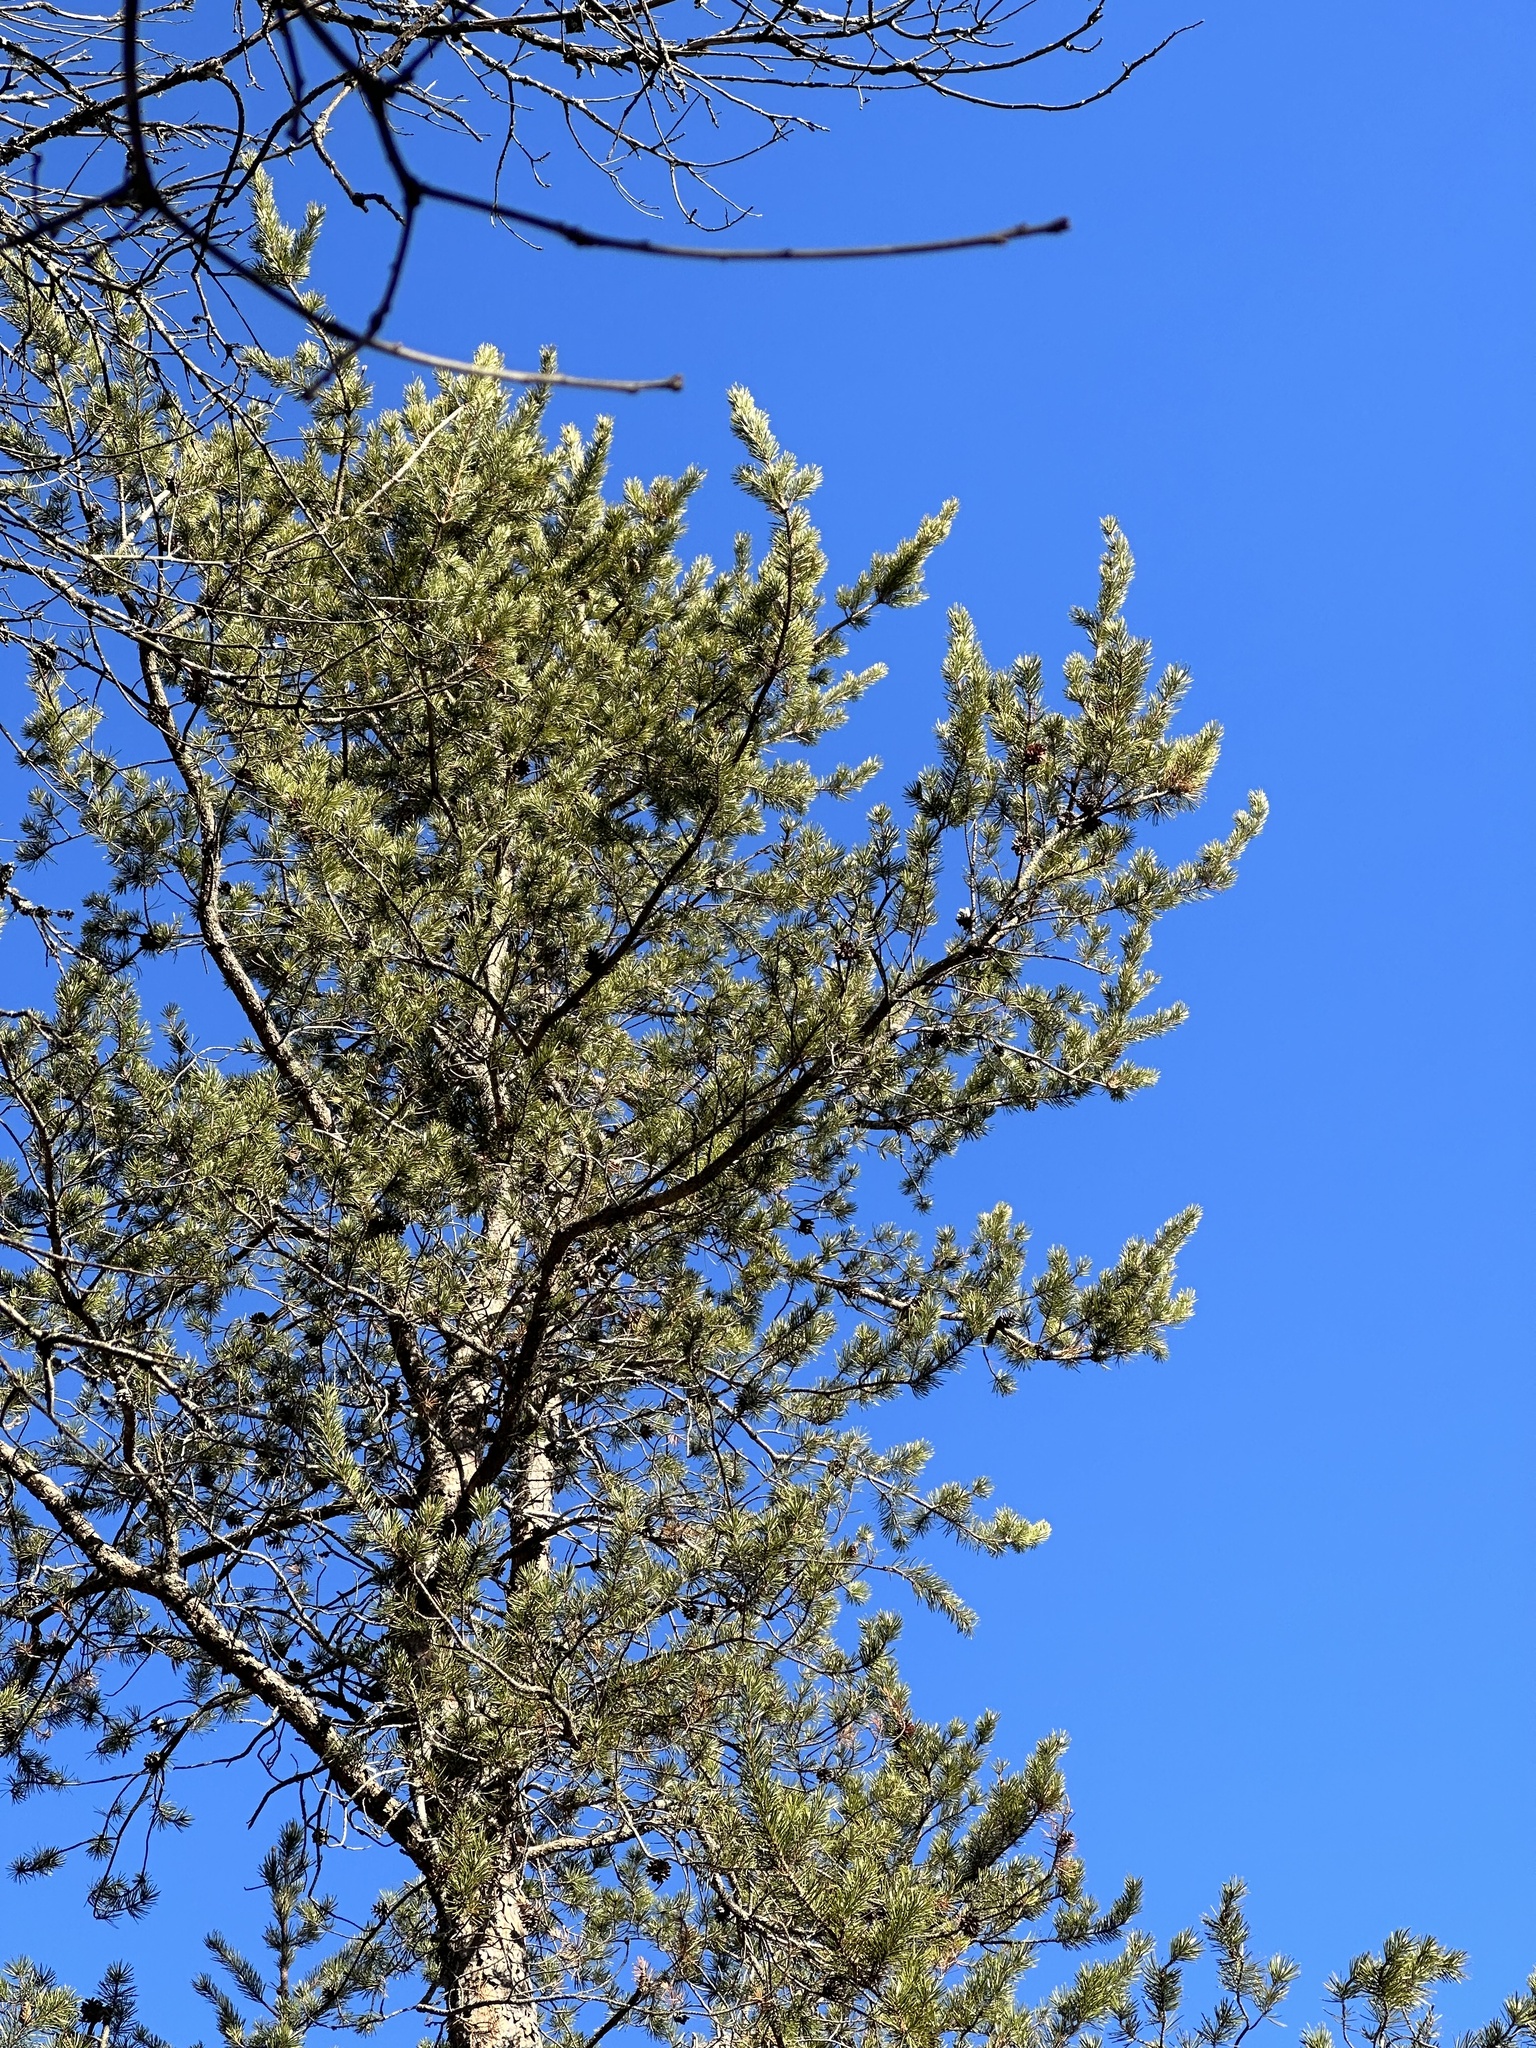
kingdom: Plantae
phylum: Tracheophyta
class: Pinopsida
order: Pinales
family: Pinaceae
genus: Pinus
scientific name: Pinus banksiana
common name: Jack pine
